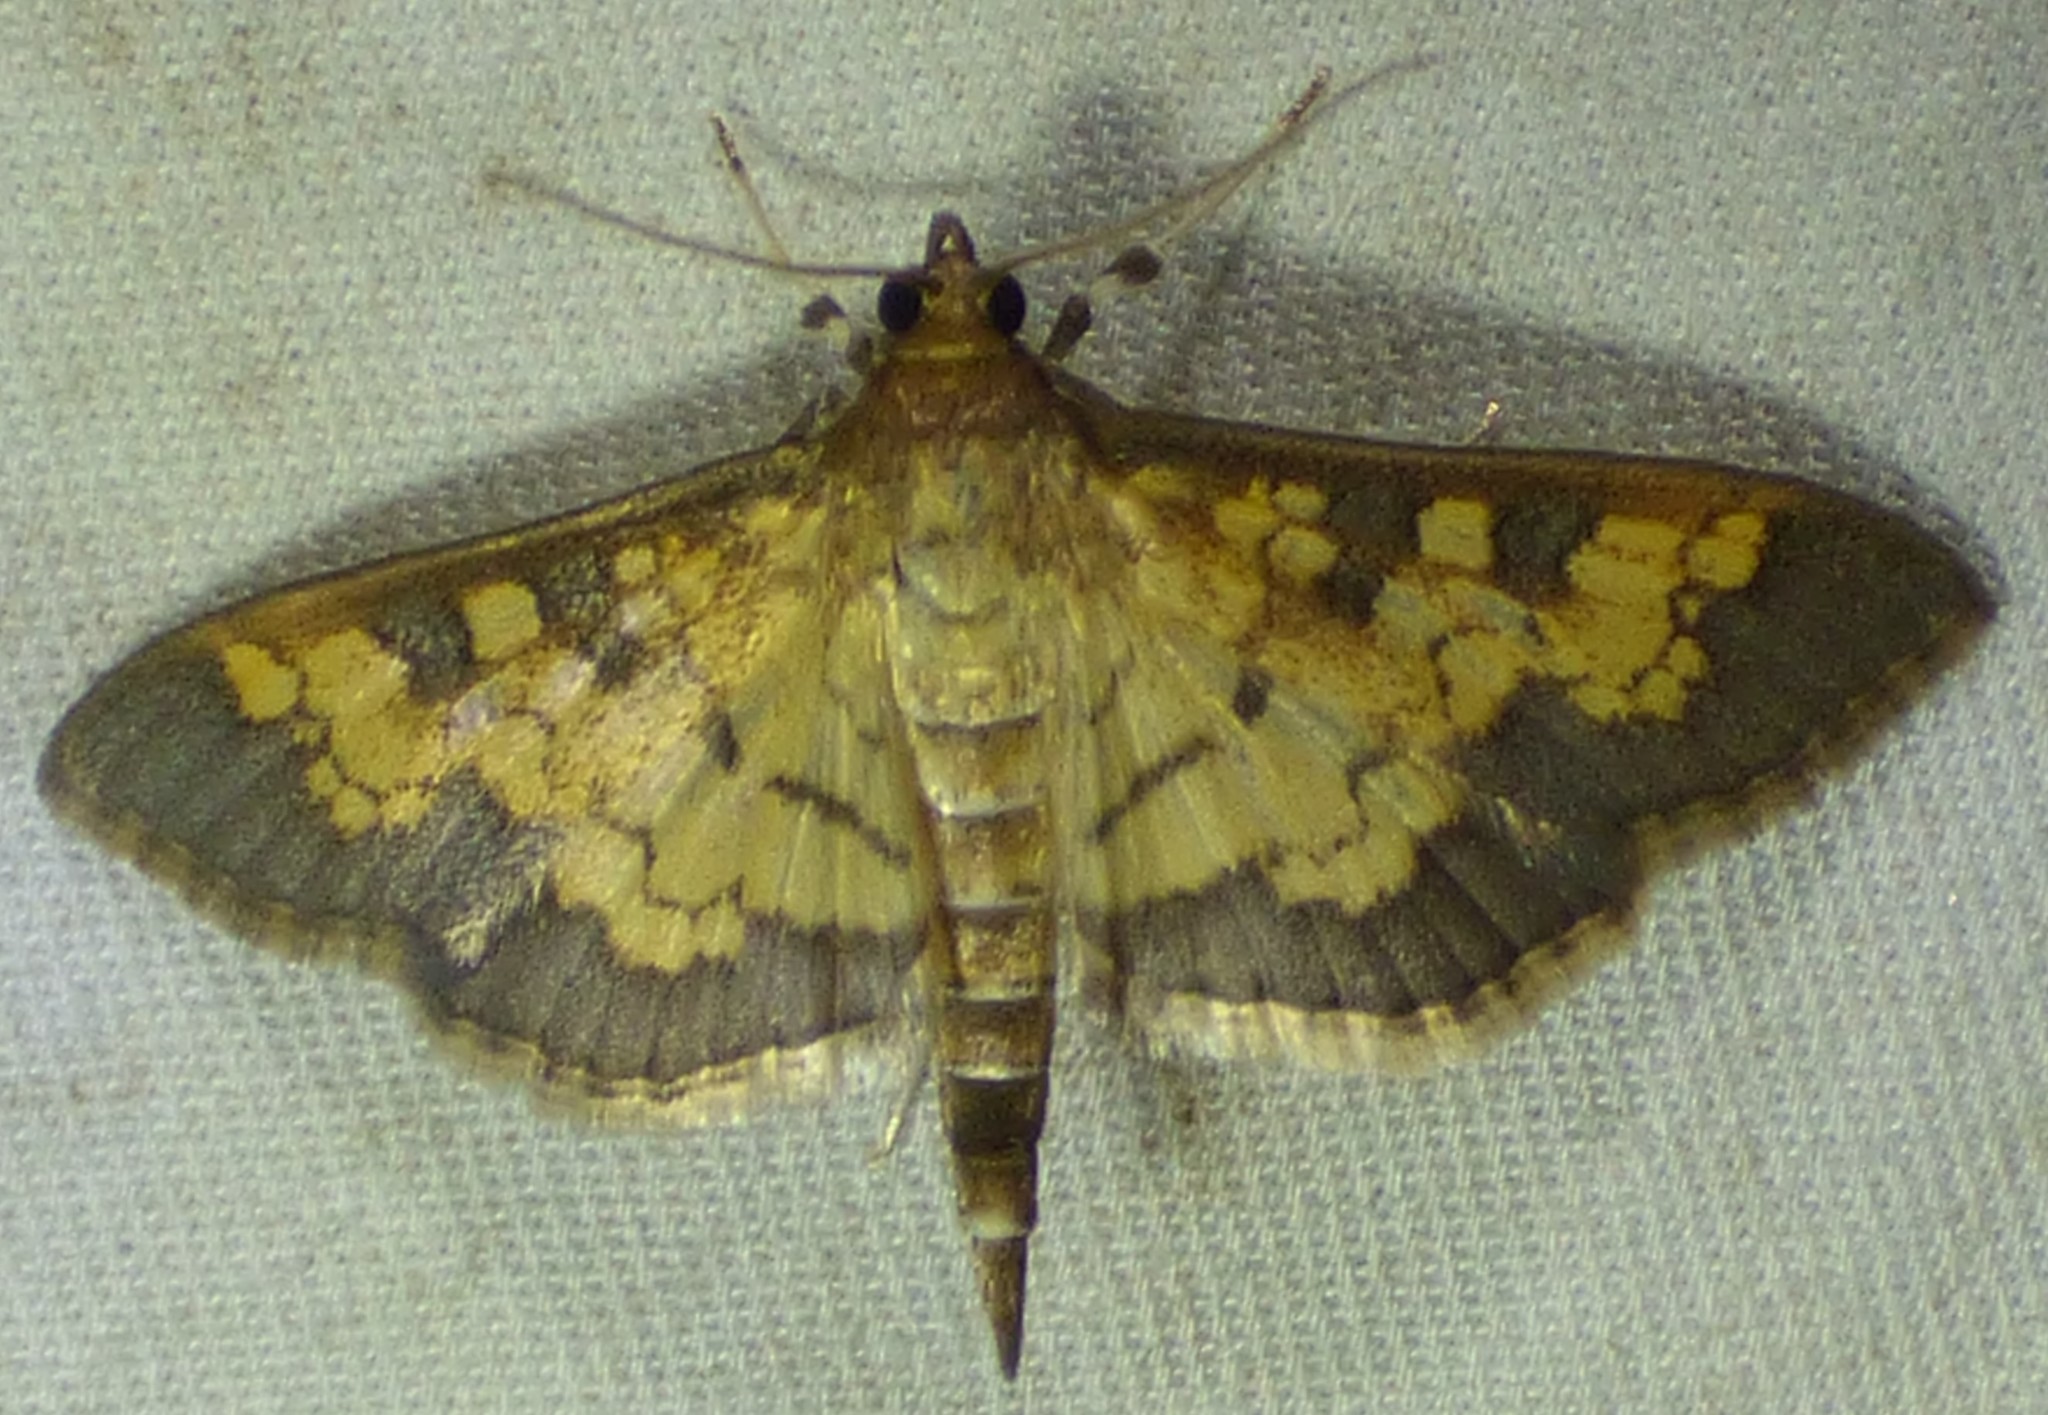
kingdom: Animalia
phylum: Arthropoda
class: Insecta
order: Lepidoptera
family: Crambidae
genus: Epipagis
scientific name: Epipagis adipaloides
